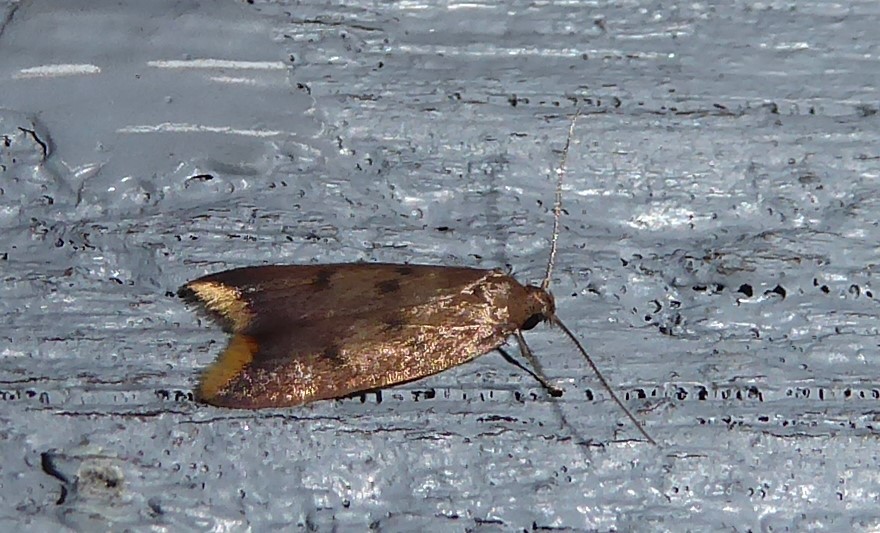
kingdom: Animalia
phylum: Arthropoda
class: Insecta
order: Lepidoptera
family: Oecophoridae
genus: Tachystola
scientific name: Tachystola acroxantha
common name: Ruddy streak
